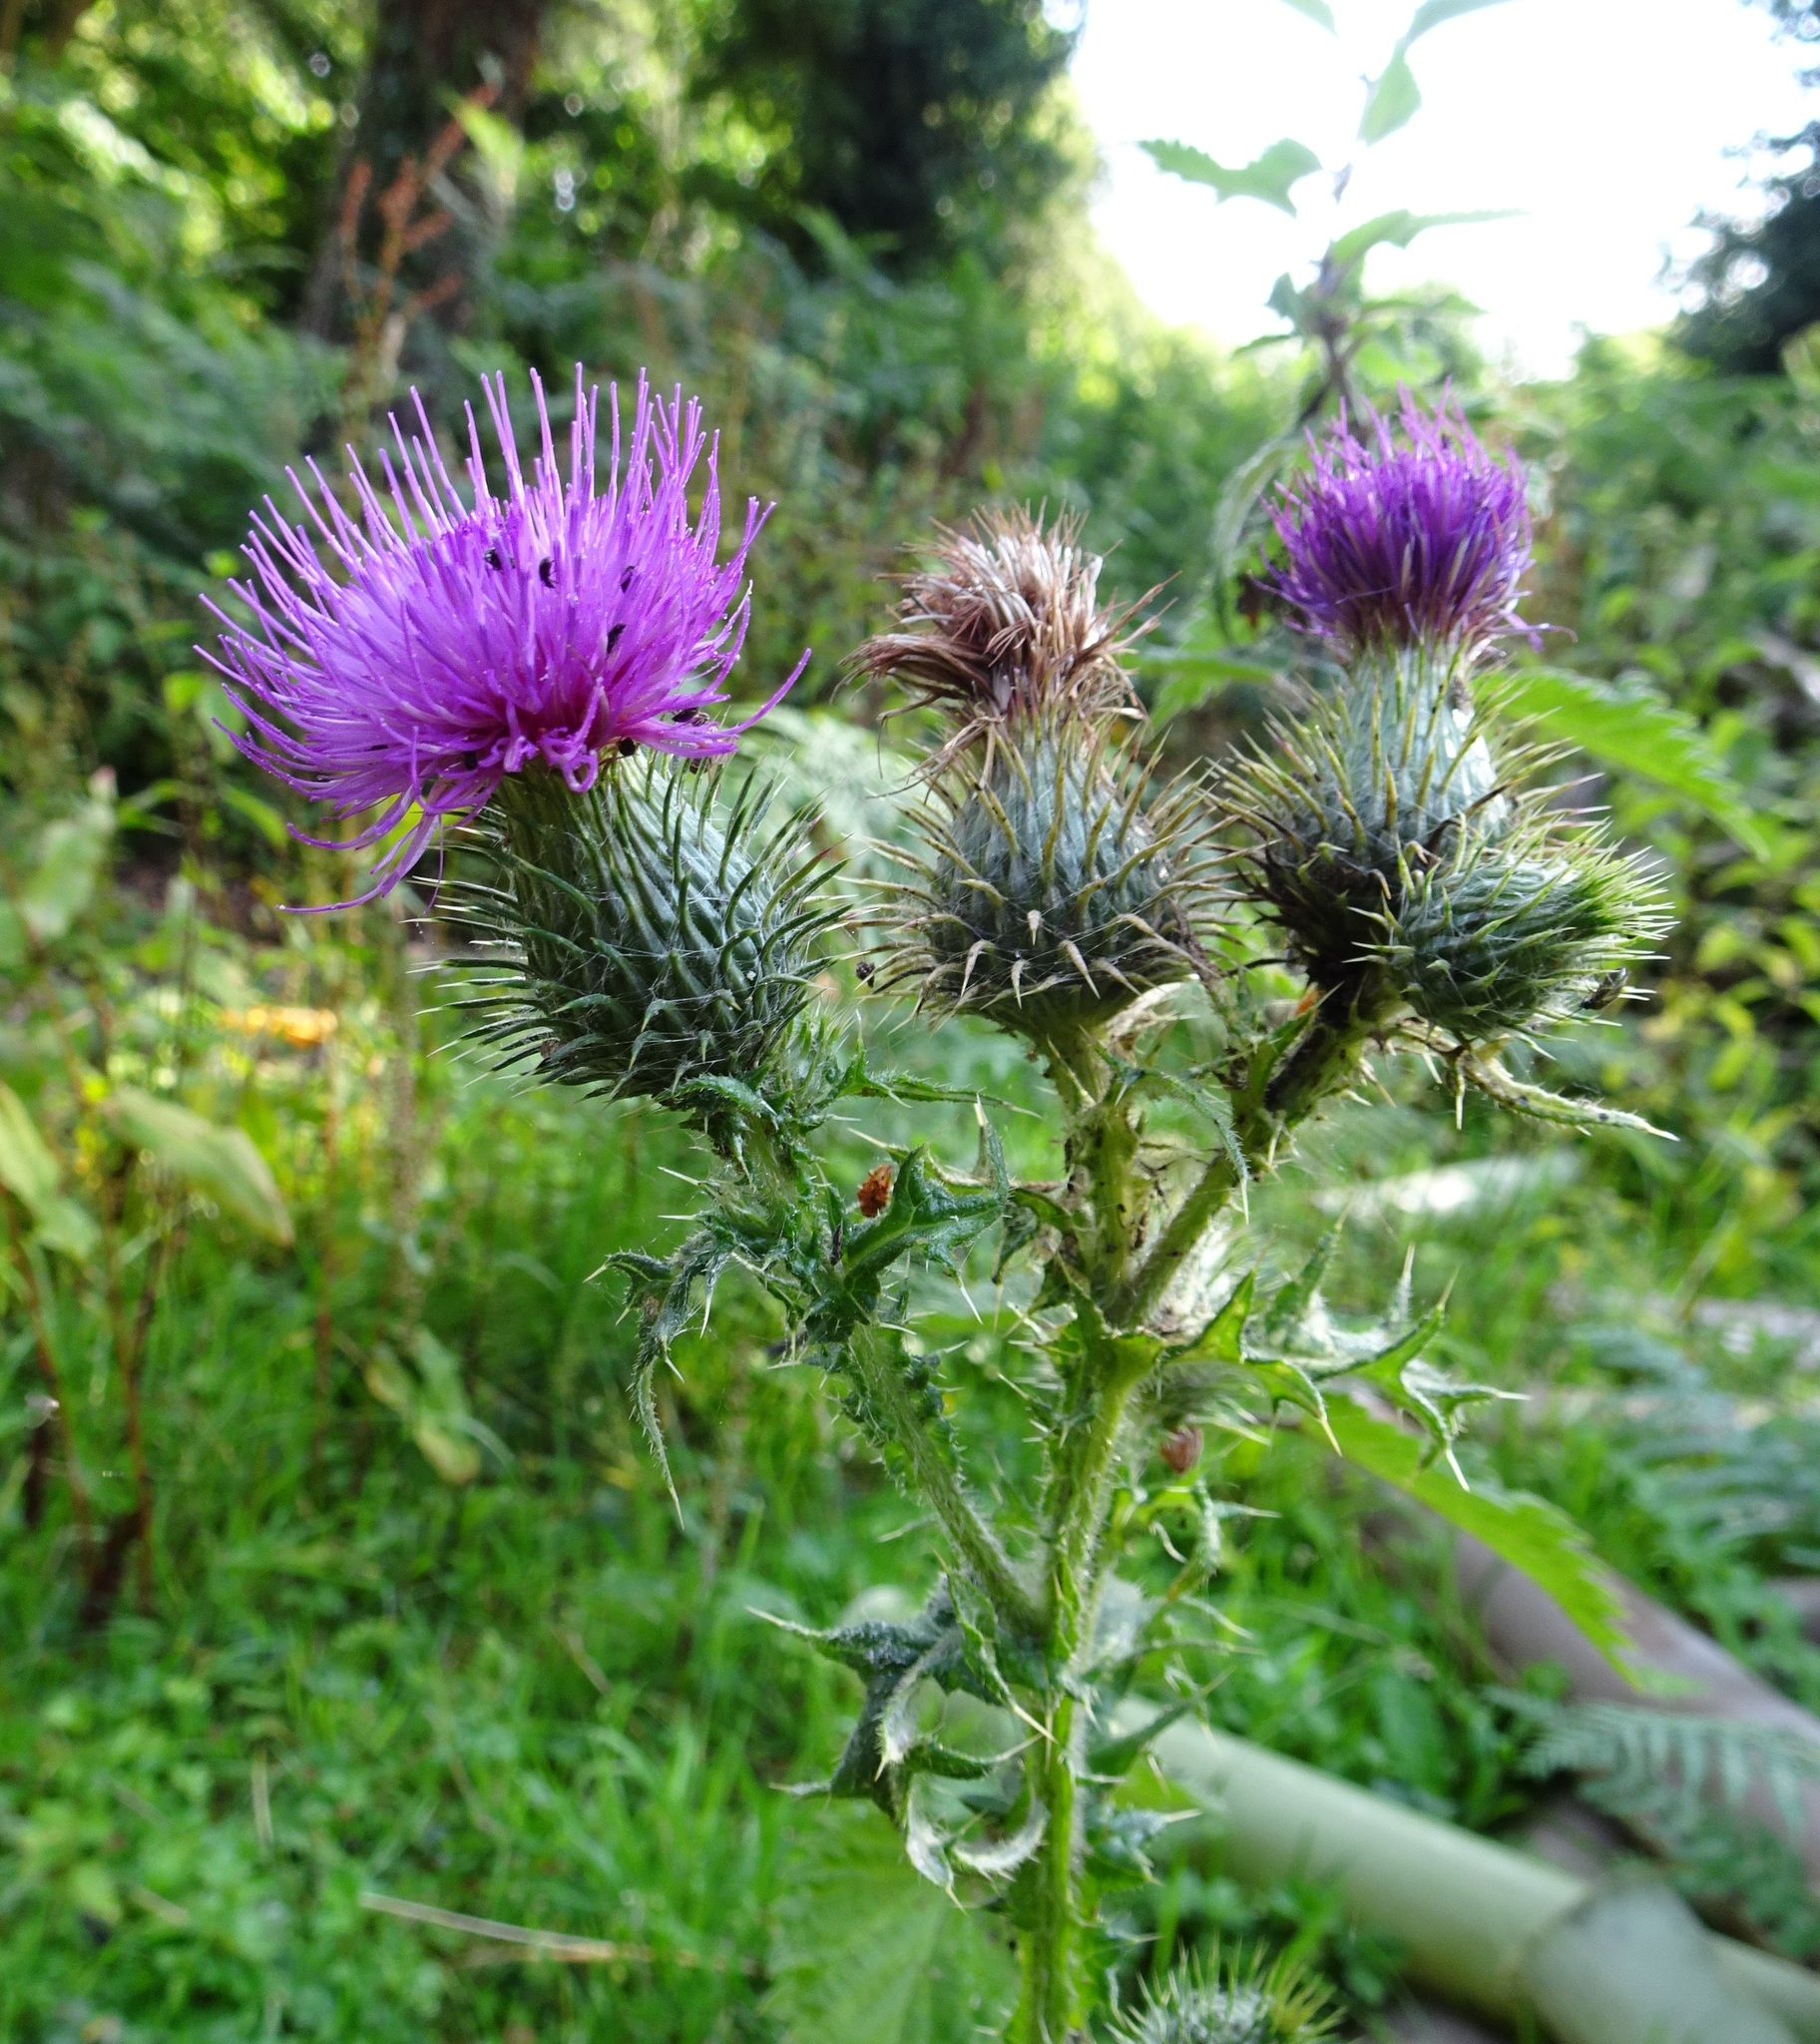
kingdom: Plantae
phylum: Tracheophyta
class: Magnoliopsida
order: Asterales
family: Asteraceae
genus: Cirsium
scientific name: Cirsium vulgare
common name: Bull thistle
